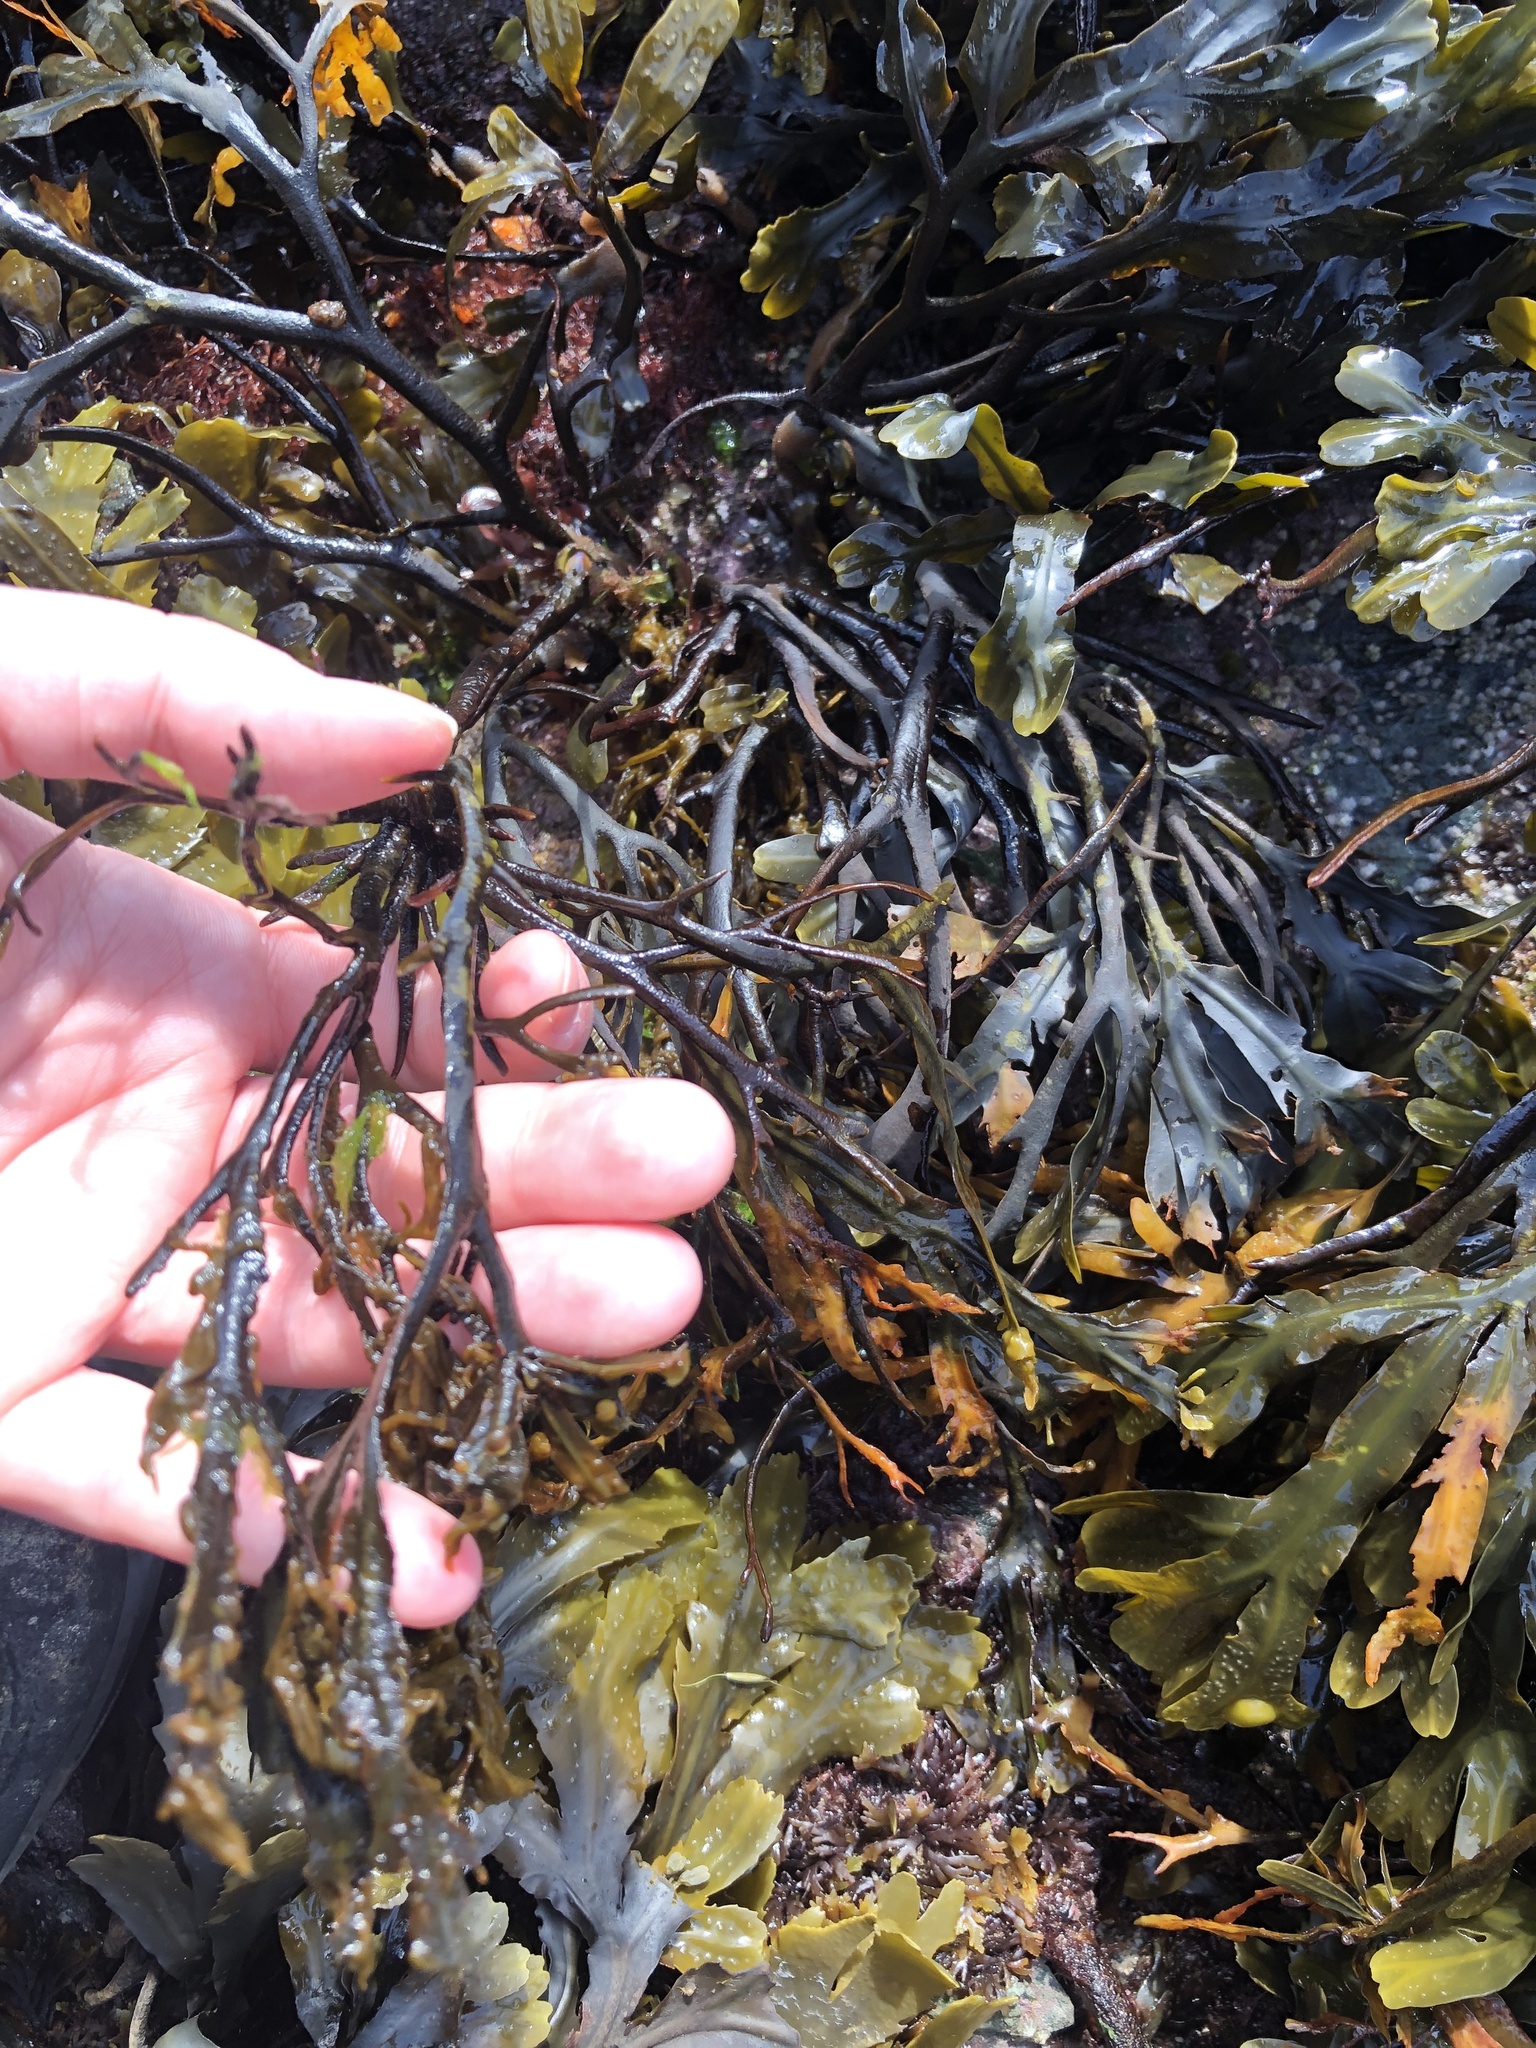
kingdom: Chromista
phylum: Ochrophyta
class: Phaeophyceae
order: Fucales
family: Fucaceae
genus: Fucus
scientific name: Fucus serratus
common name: Toothed wrack
